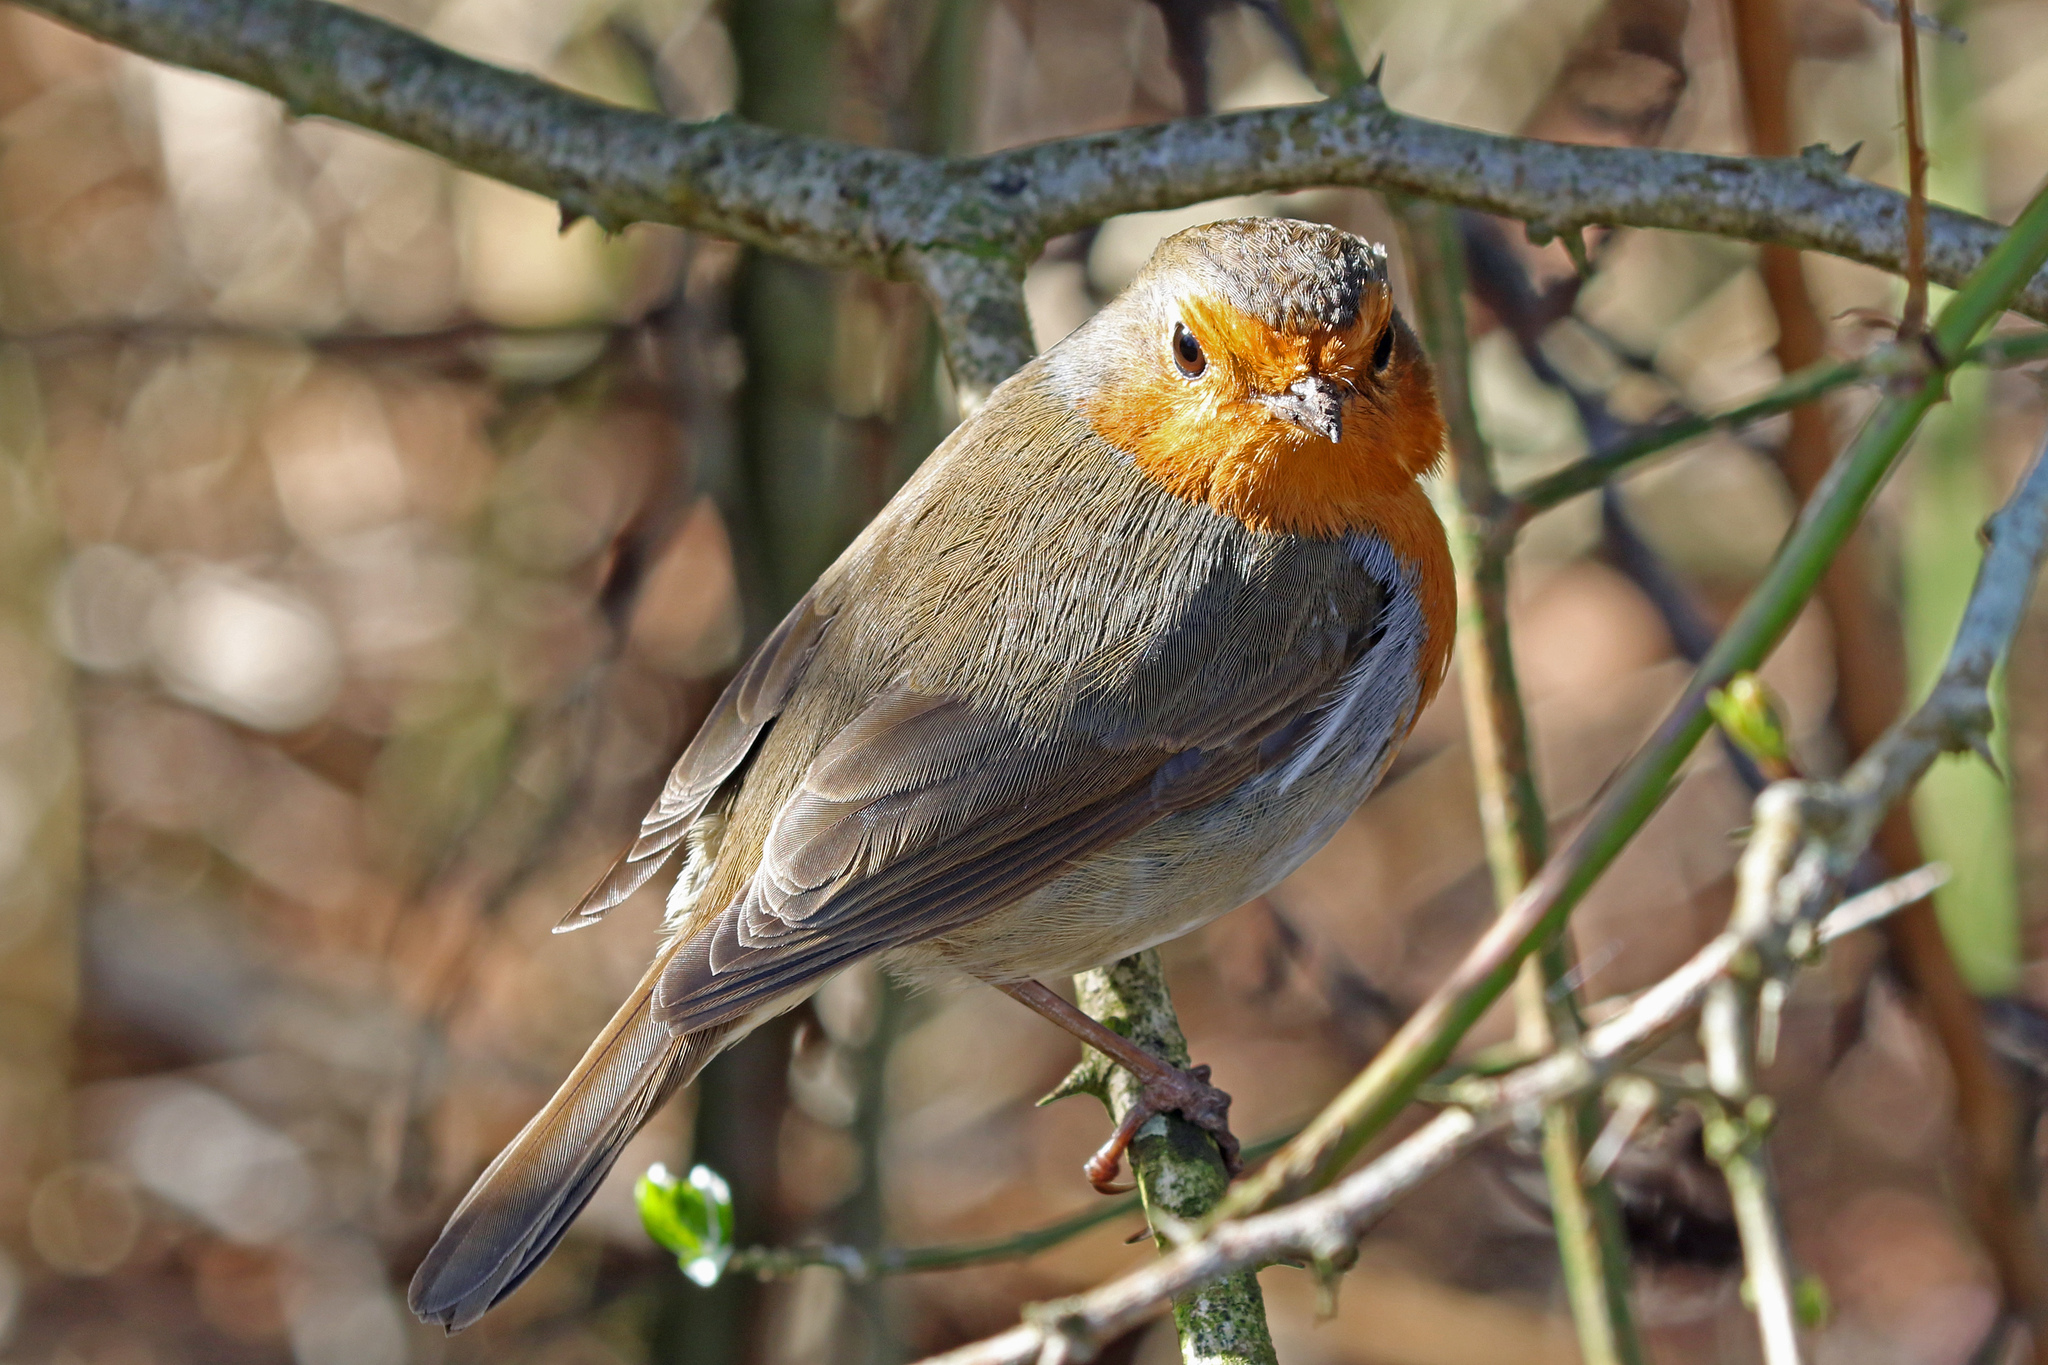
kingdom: Animalia
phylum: Chordata
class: Aves
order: Passeriformes
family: Muscicapidae
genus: Erithacus
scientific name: Erithacus rubecula
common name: European robin
